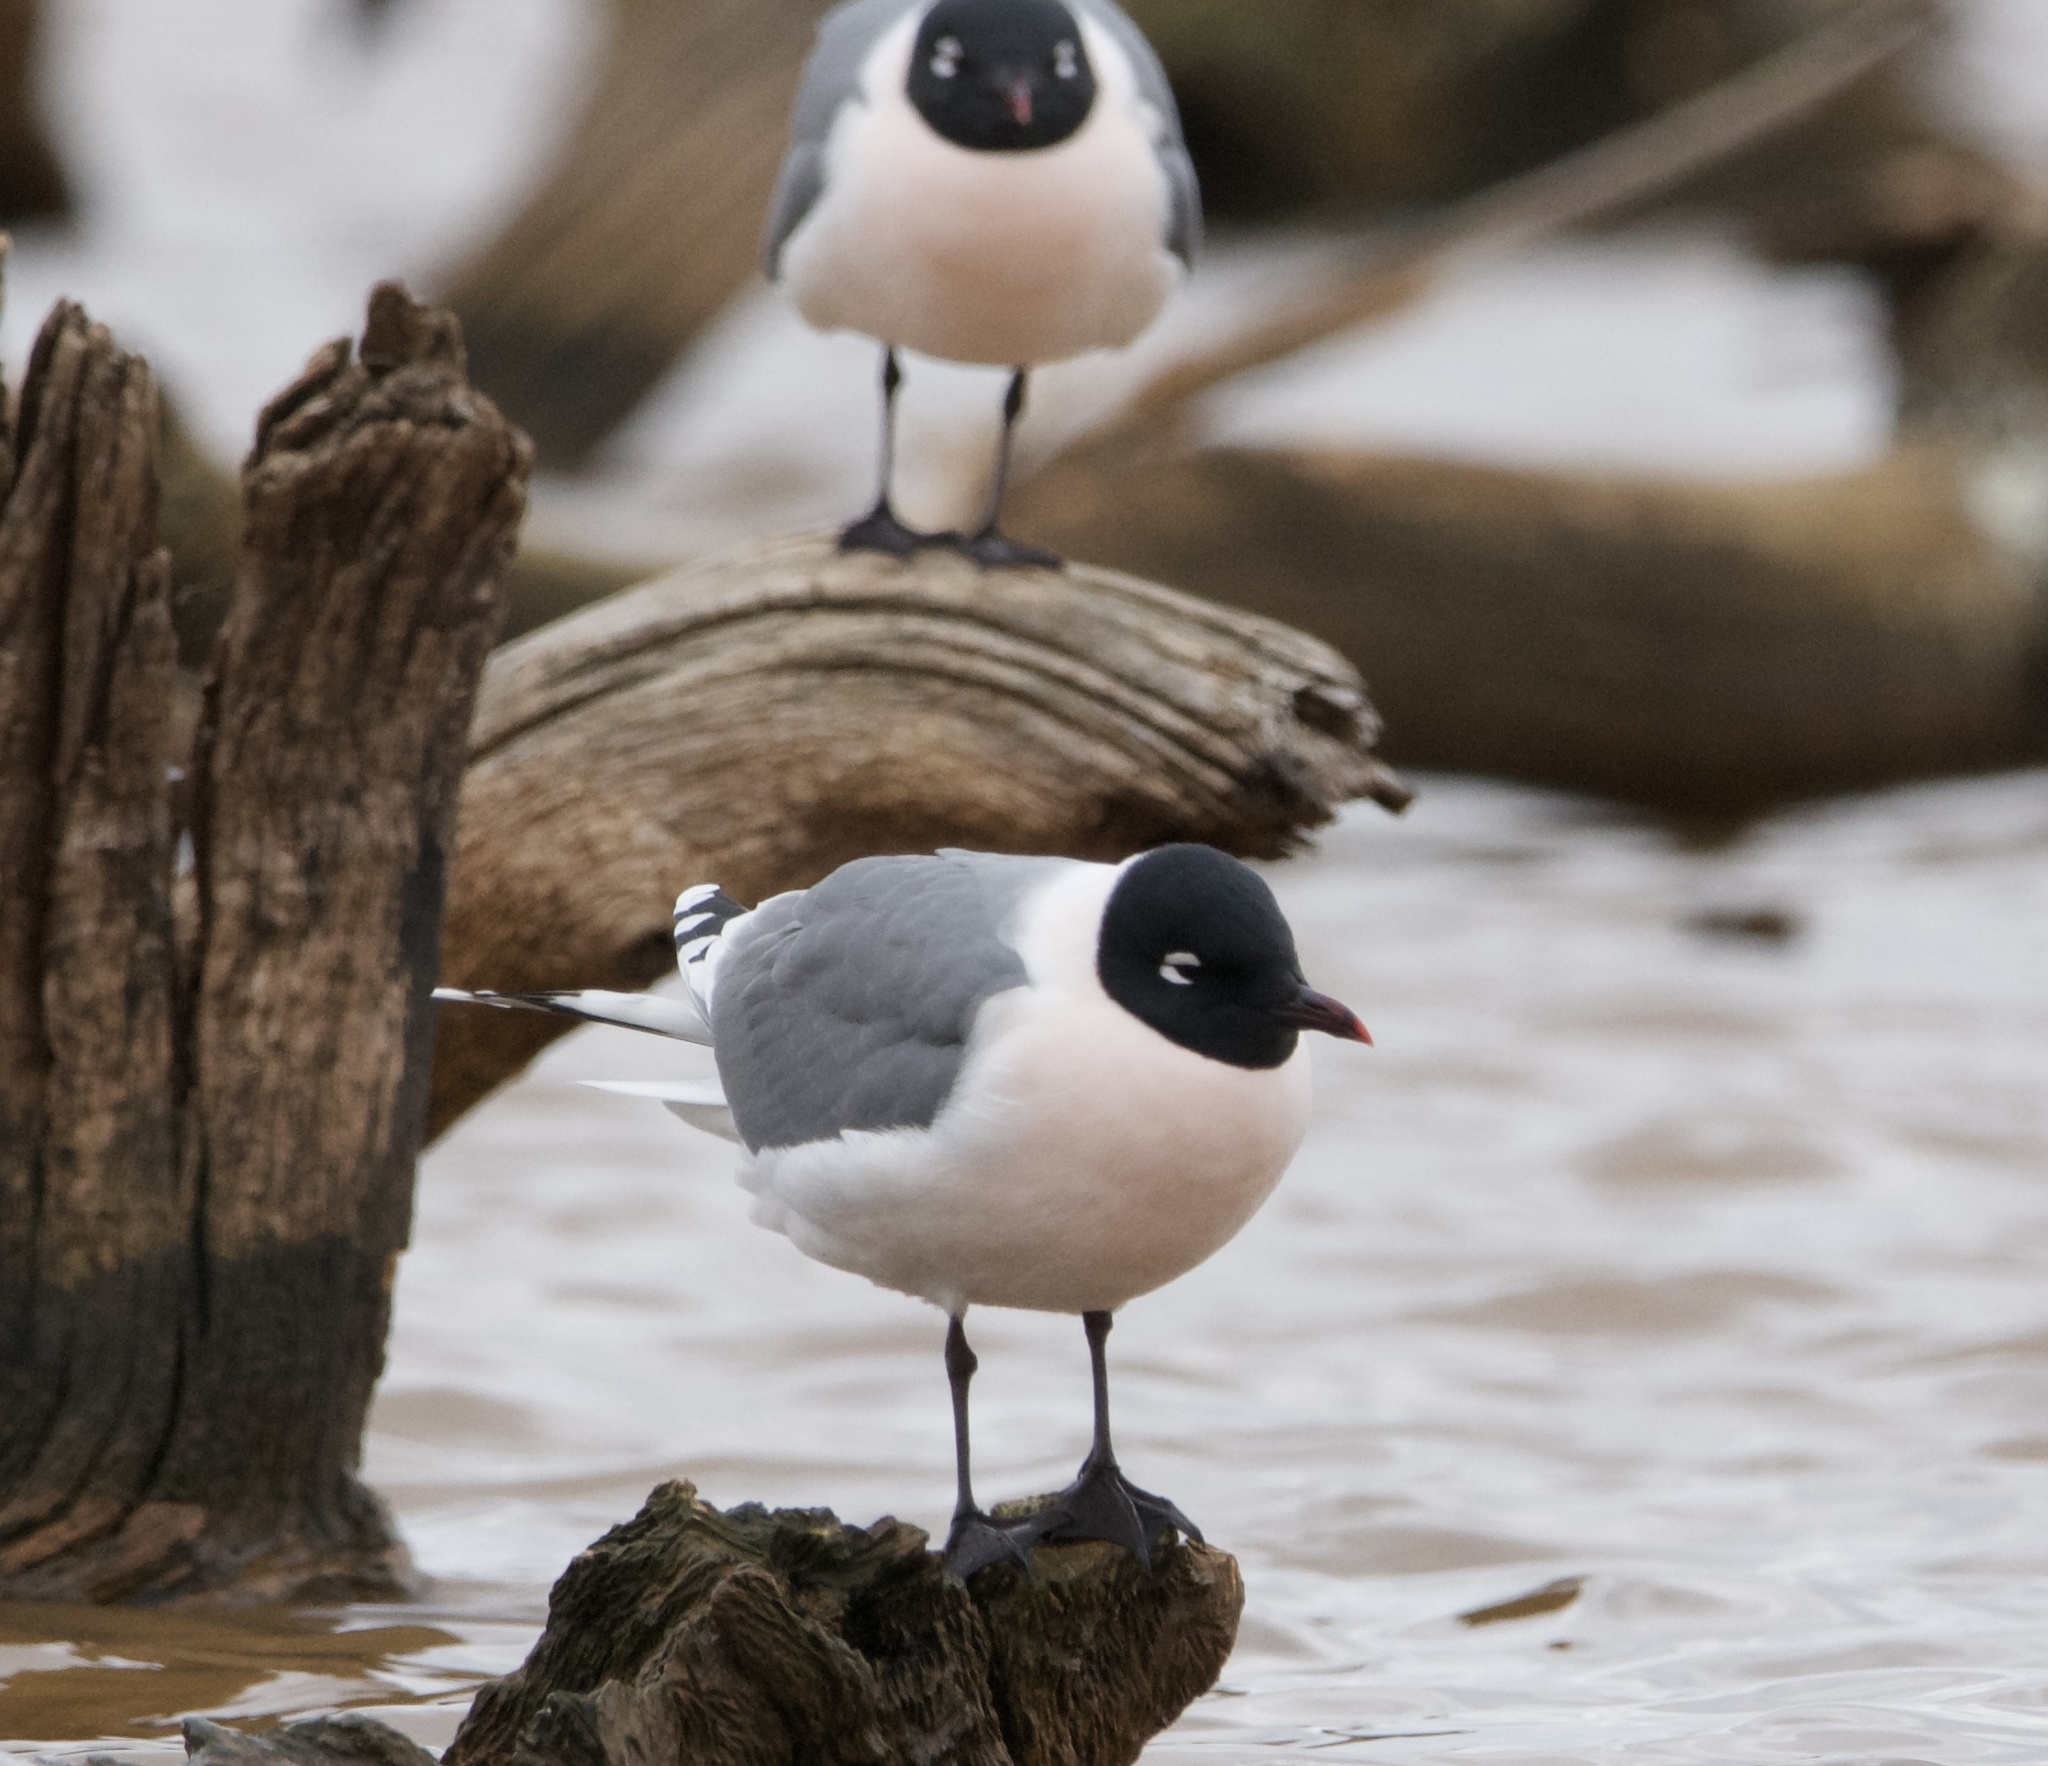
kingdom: Animalia
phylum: Chordata
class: Aves
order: Charadriiformes
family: Laridae
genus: Leucophaeus
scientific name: Leucophaeus pipixcan
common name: Franklin's gull
